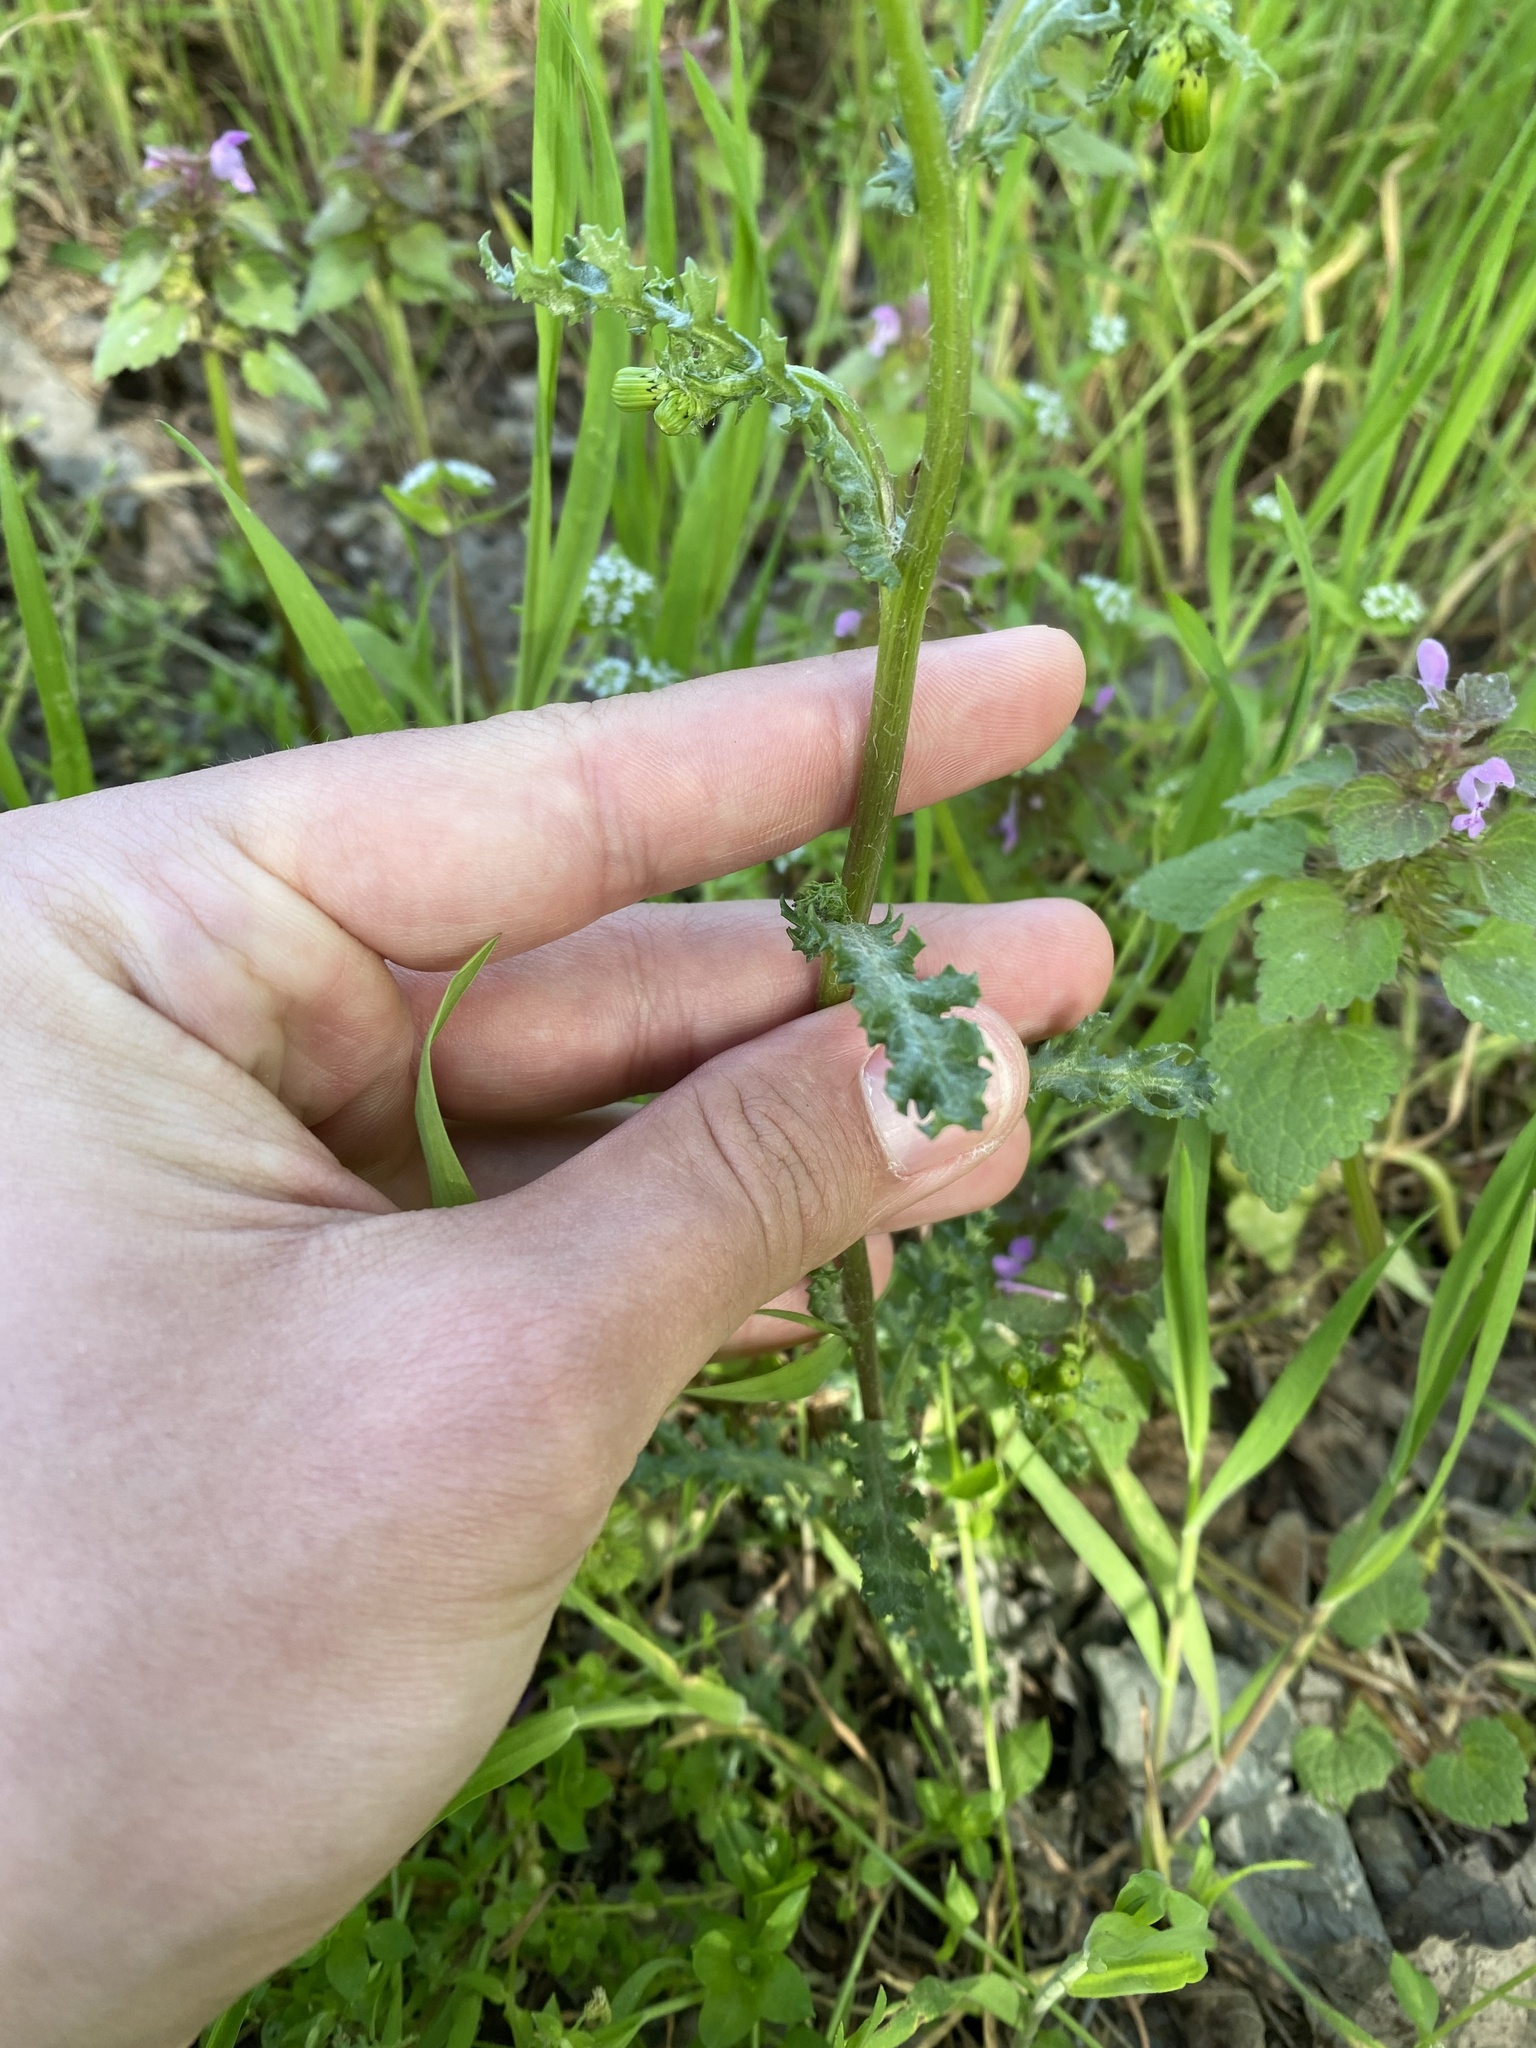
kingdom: Plantae
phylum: Tracheophyta
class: Magnoliopsida
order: Asterales
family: Asteraceae
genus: Senecio
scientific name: Senecio vulgaris
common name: Old-man-in-the-spring
